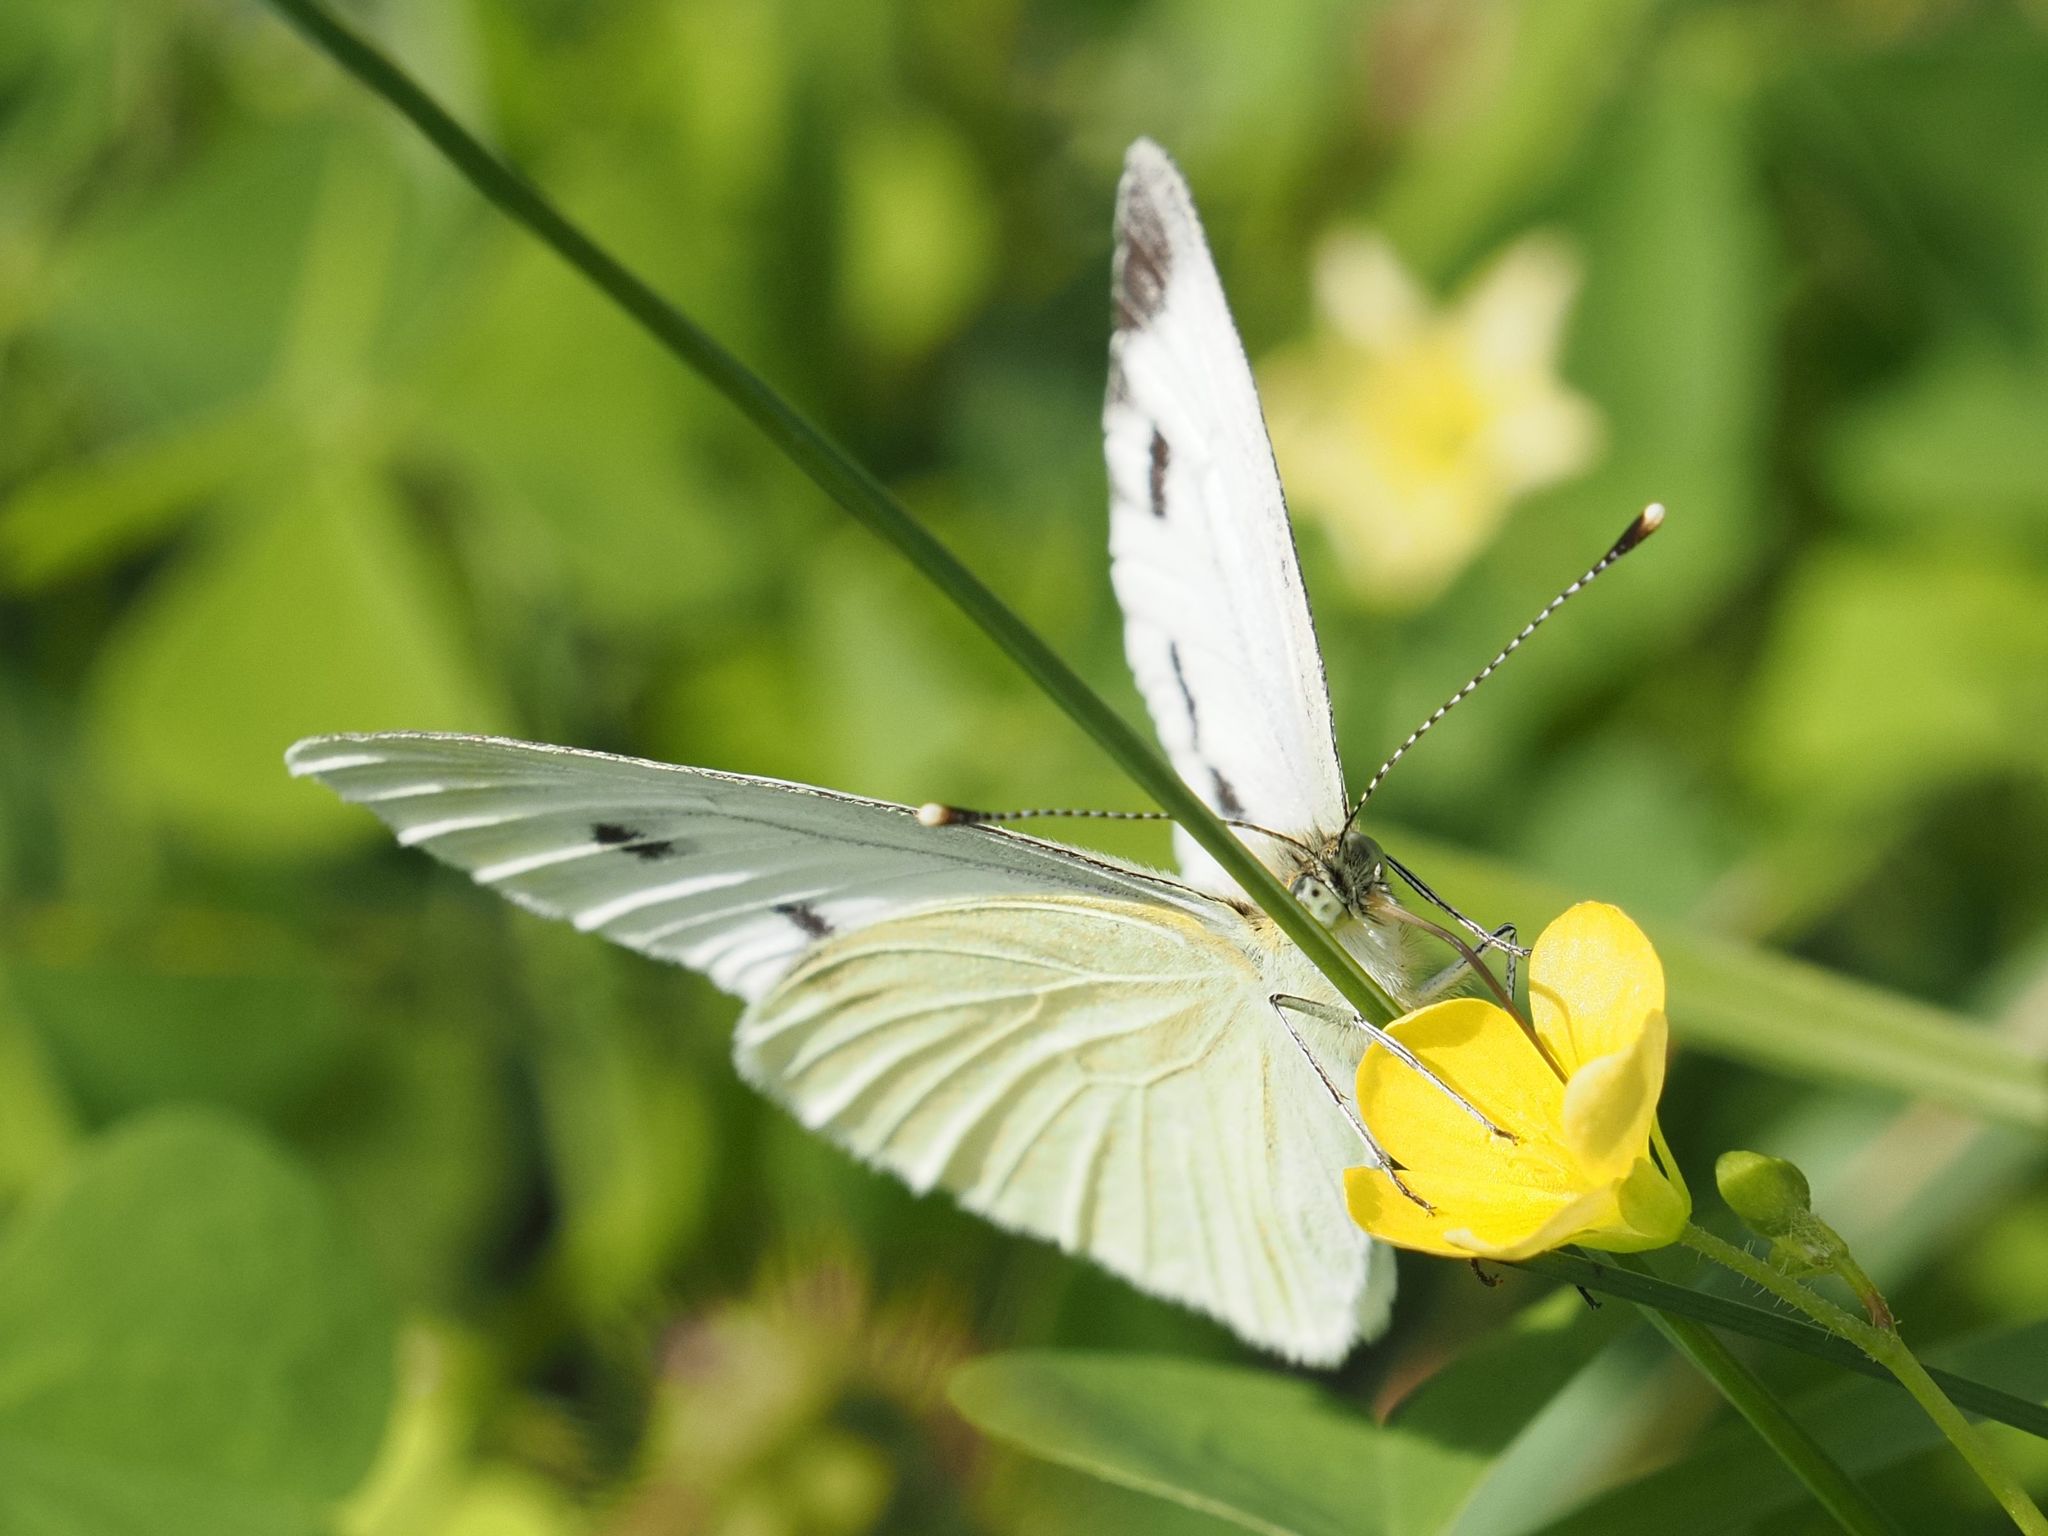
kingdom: Animalia
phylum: Arthropoda
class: Insecta
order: Lepidoptera
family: Pieridae
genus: Pieris
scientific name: Pieris napi
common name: Green-veined white
